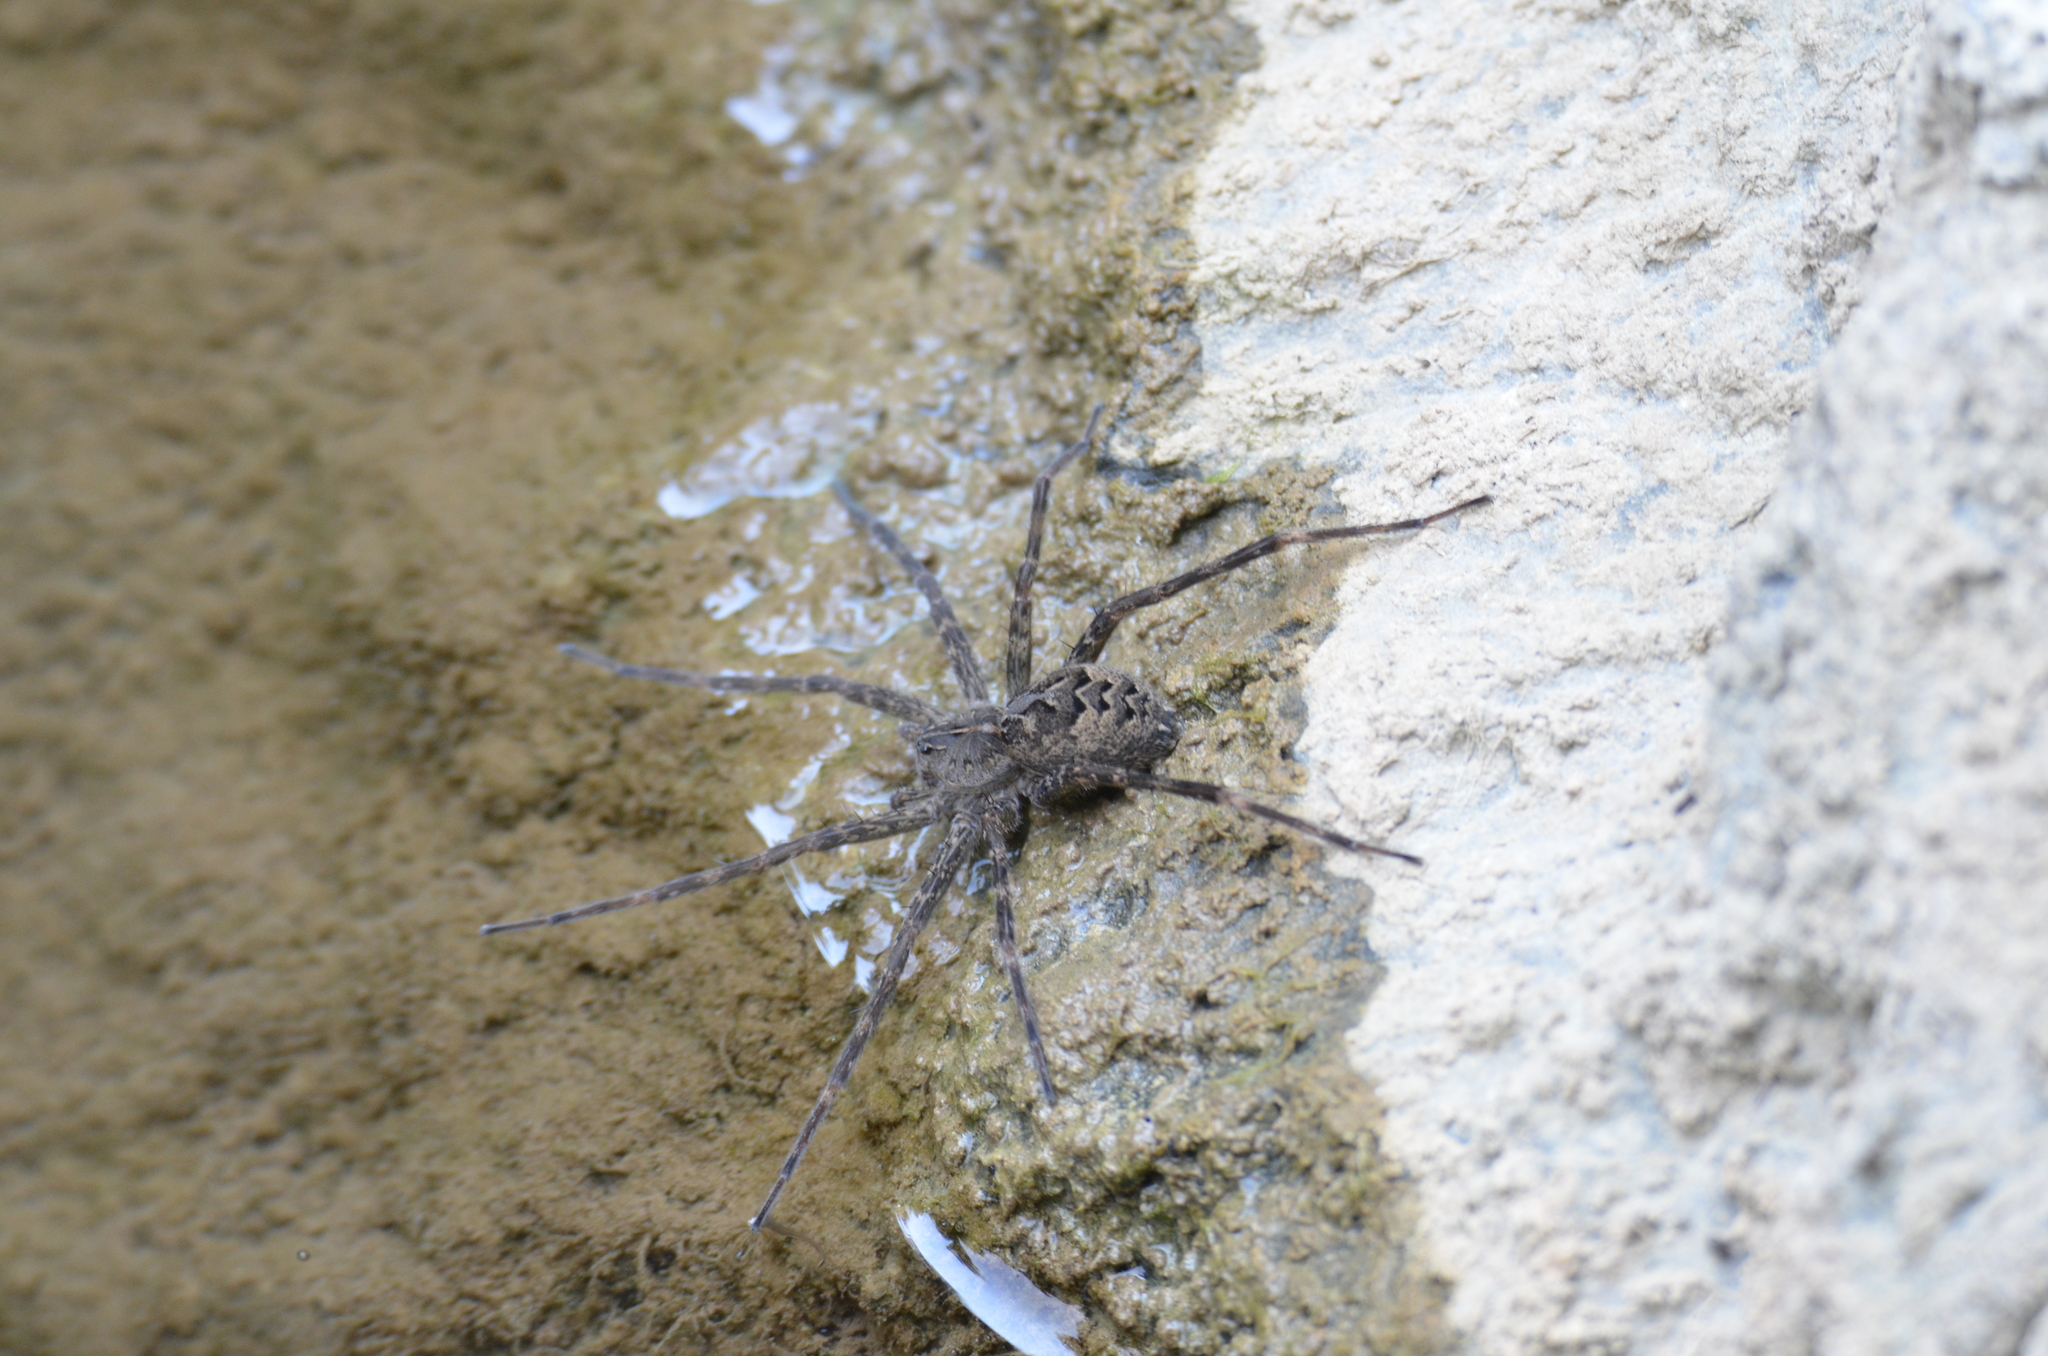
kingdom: Animalia
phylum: Arthropoda
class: Arachnida
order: Araneae
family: Pisauridae
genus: Dolomedes
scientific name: Dolomedes scriptus
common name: Striped fishing spider
